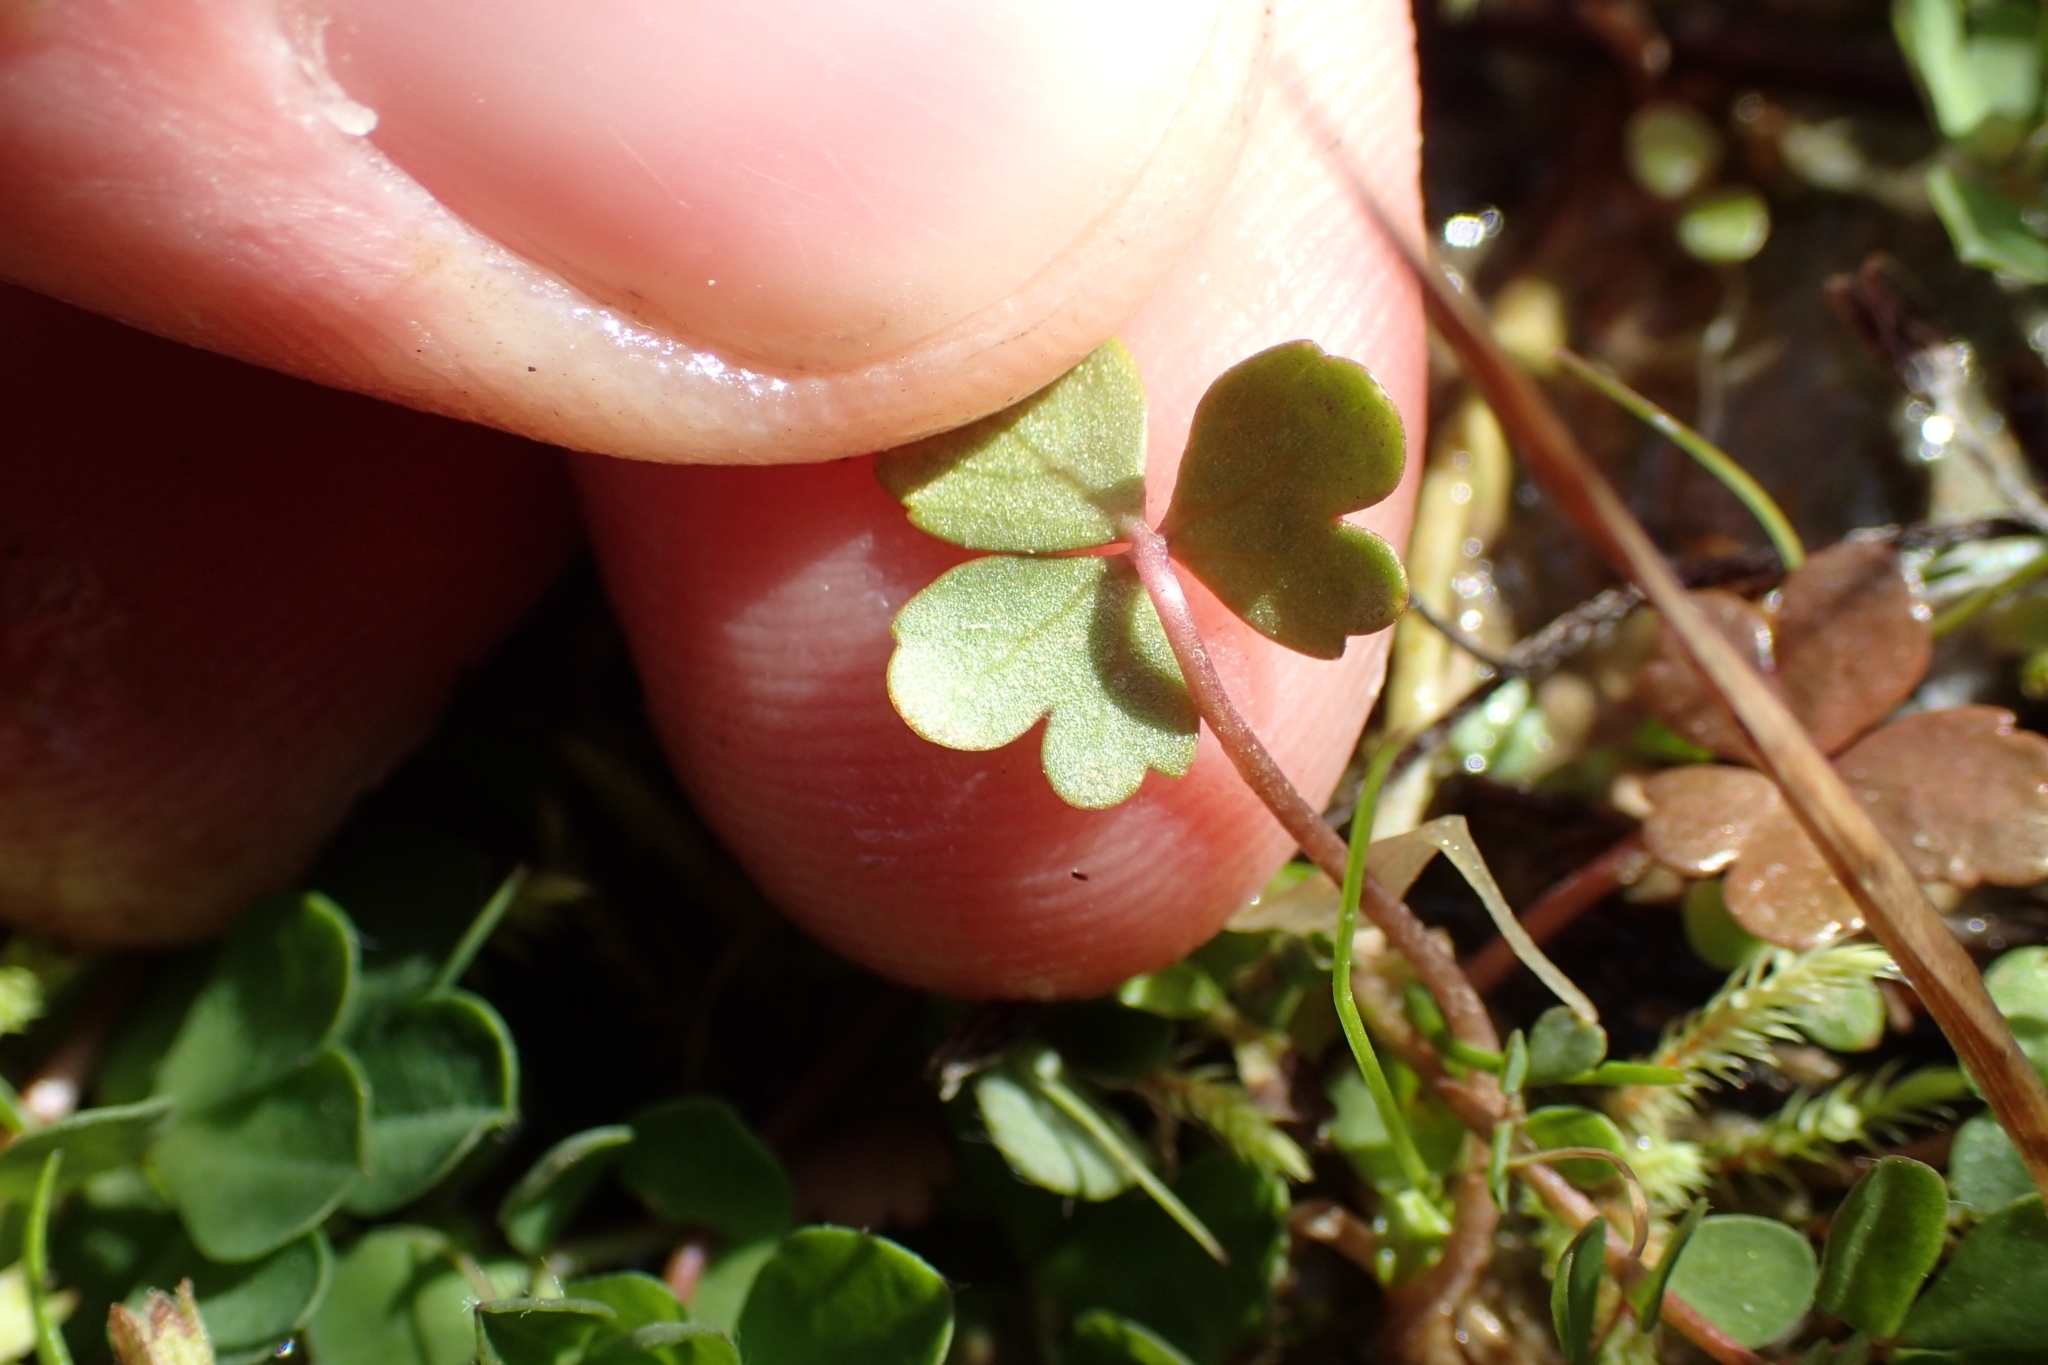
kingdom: Plantae
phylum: Tracheophyta
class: Magnoliopsida
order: Apiales
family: Araliaceae
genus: Hydrocotyle
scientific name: Hydrocotyle sulcata
